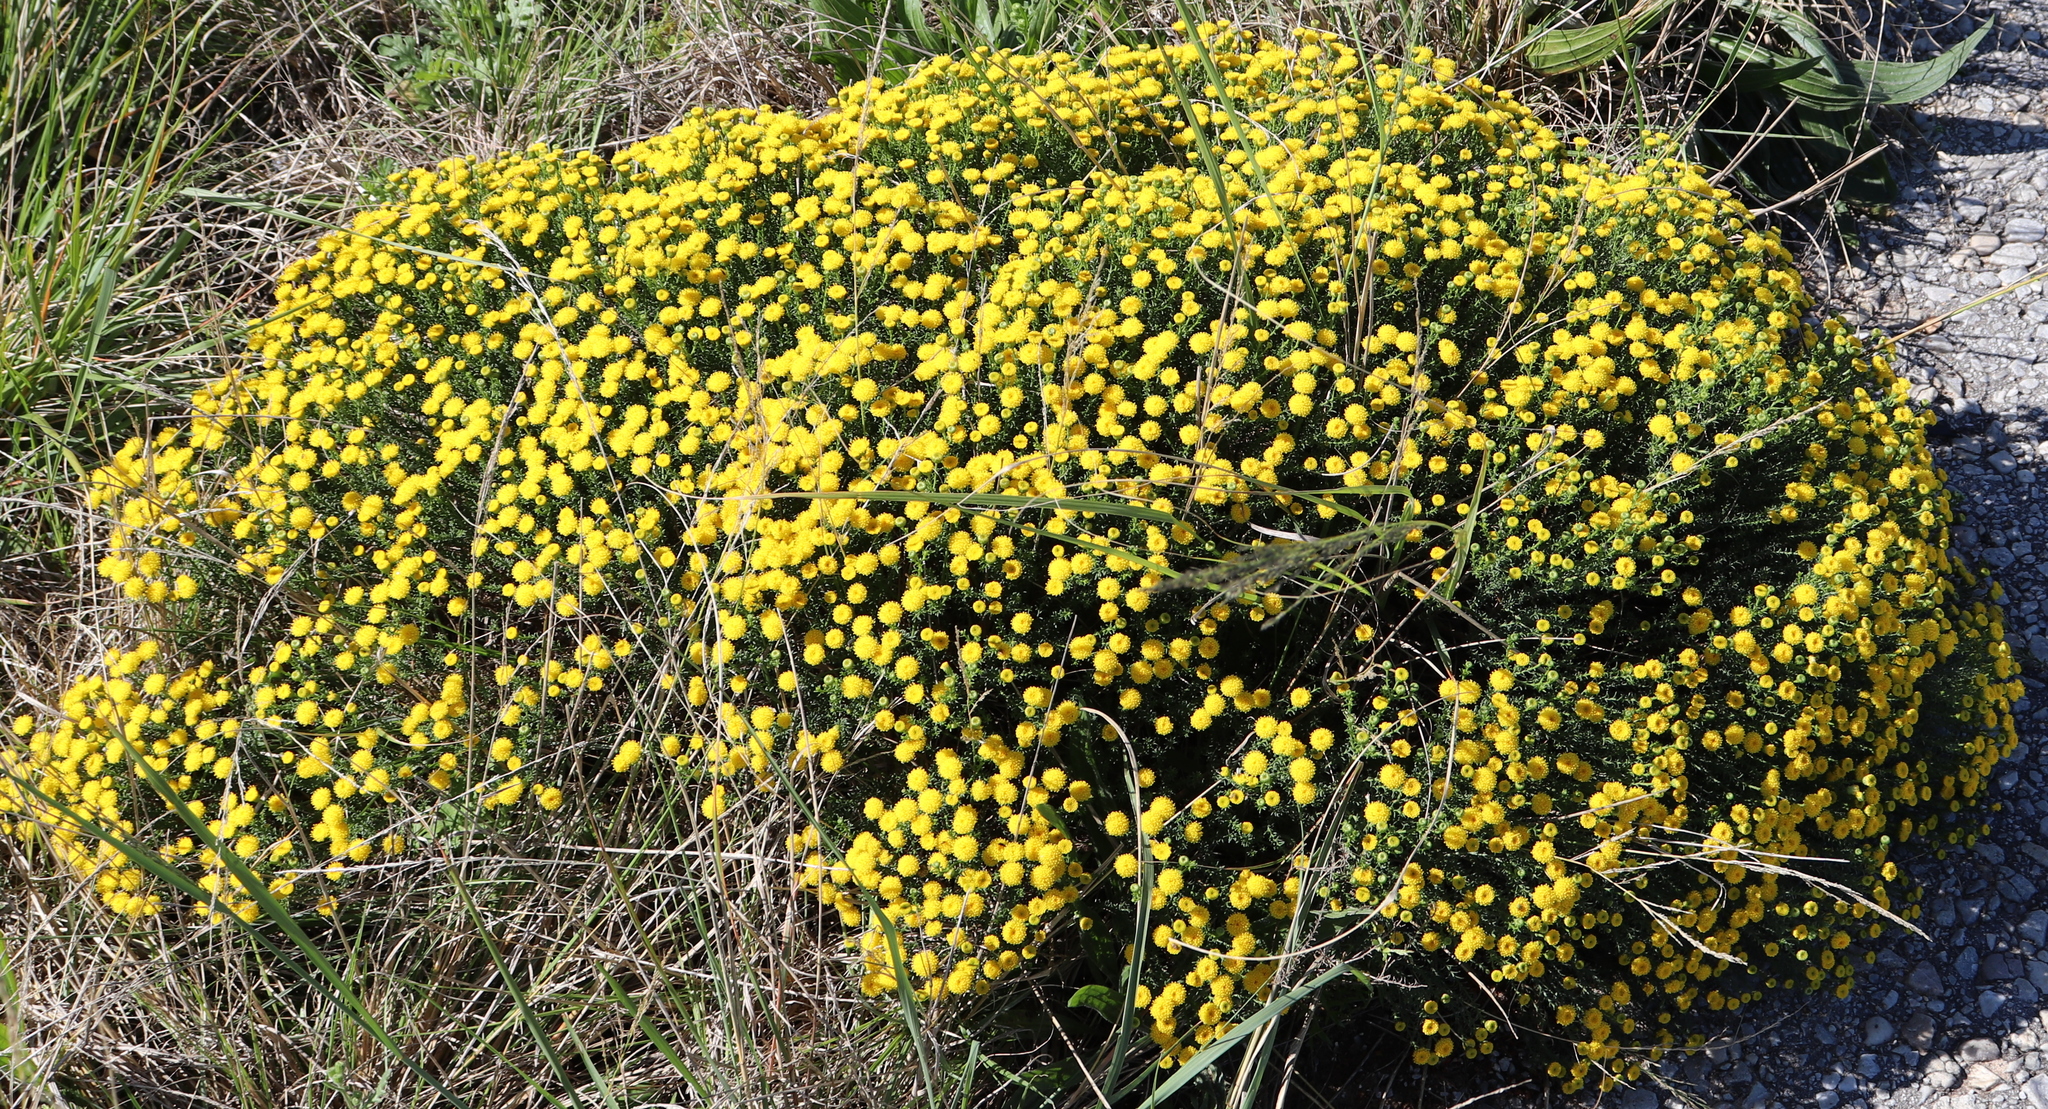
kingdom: Plantae
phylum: Tracheophyta
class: Magnoliopsida
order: Asterales
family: Asteraceae
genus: Chrysocoma
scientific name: Chrysocoma ciliata
